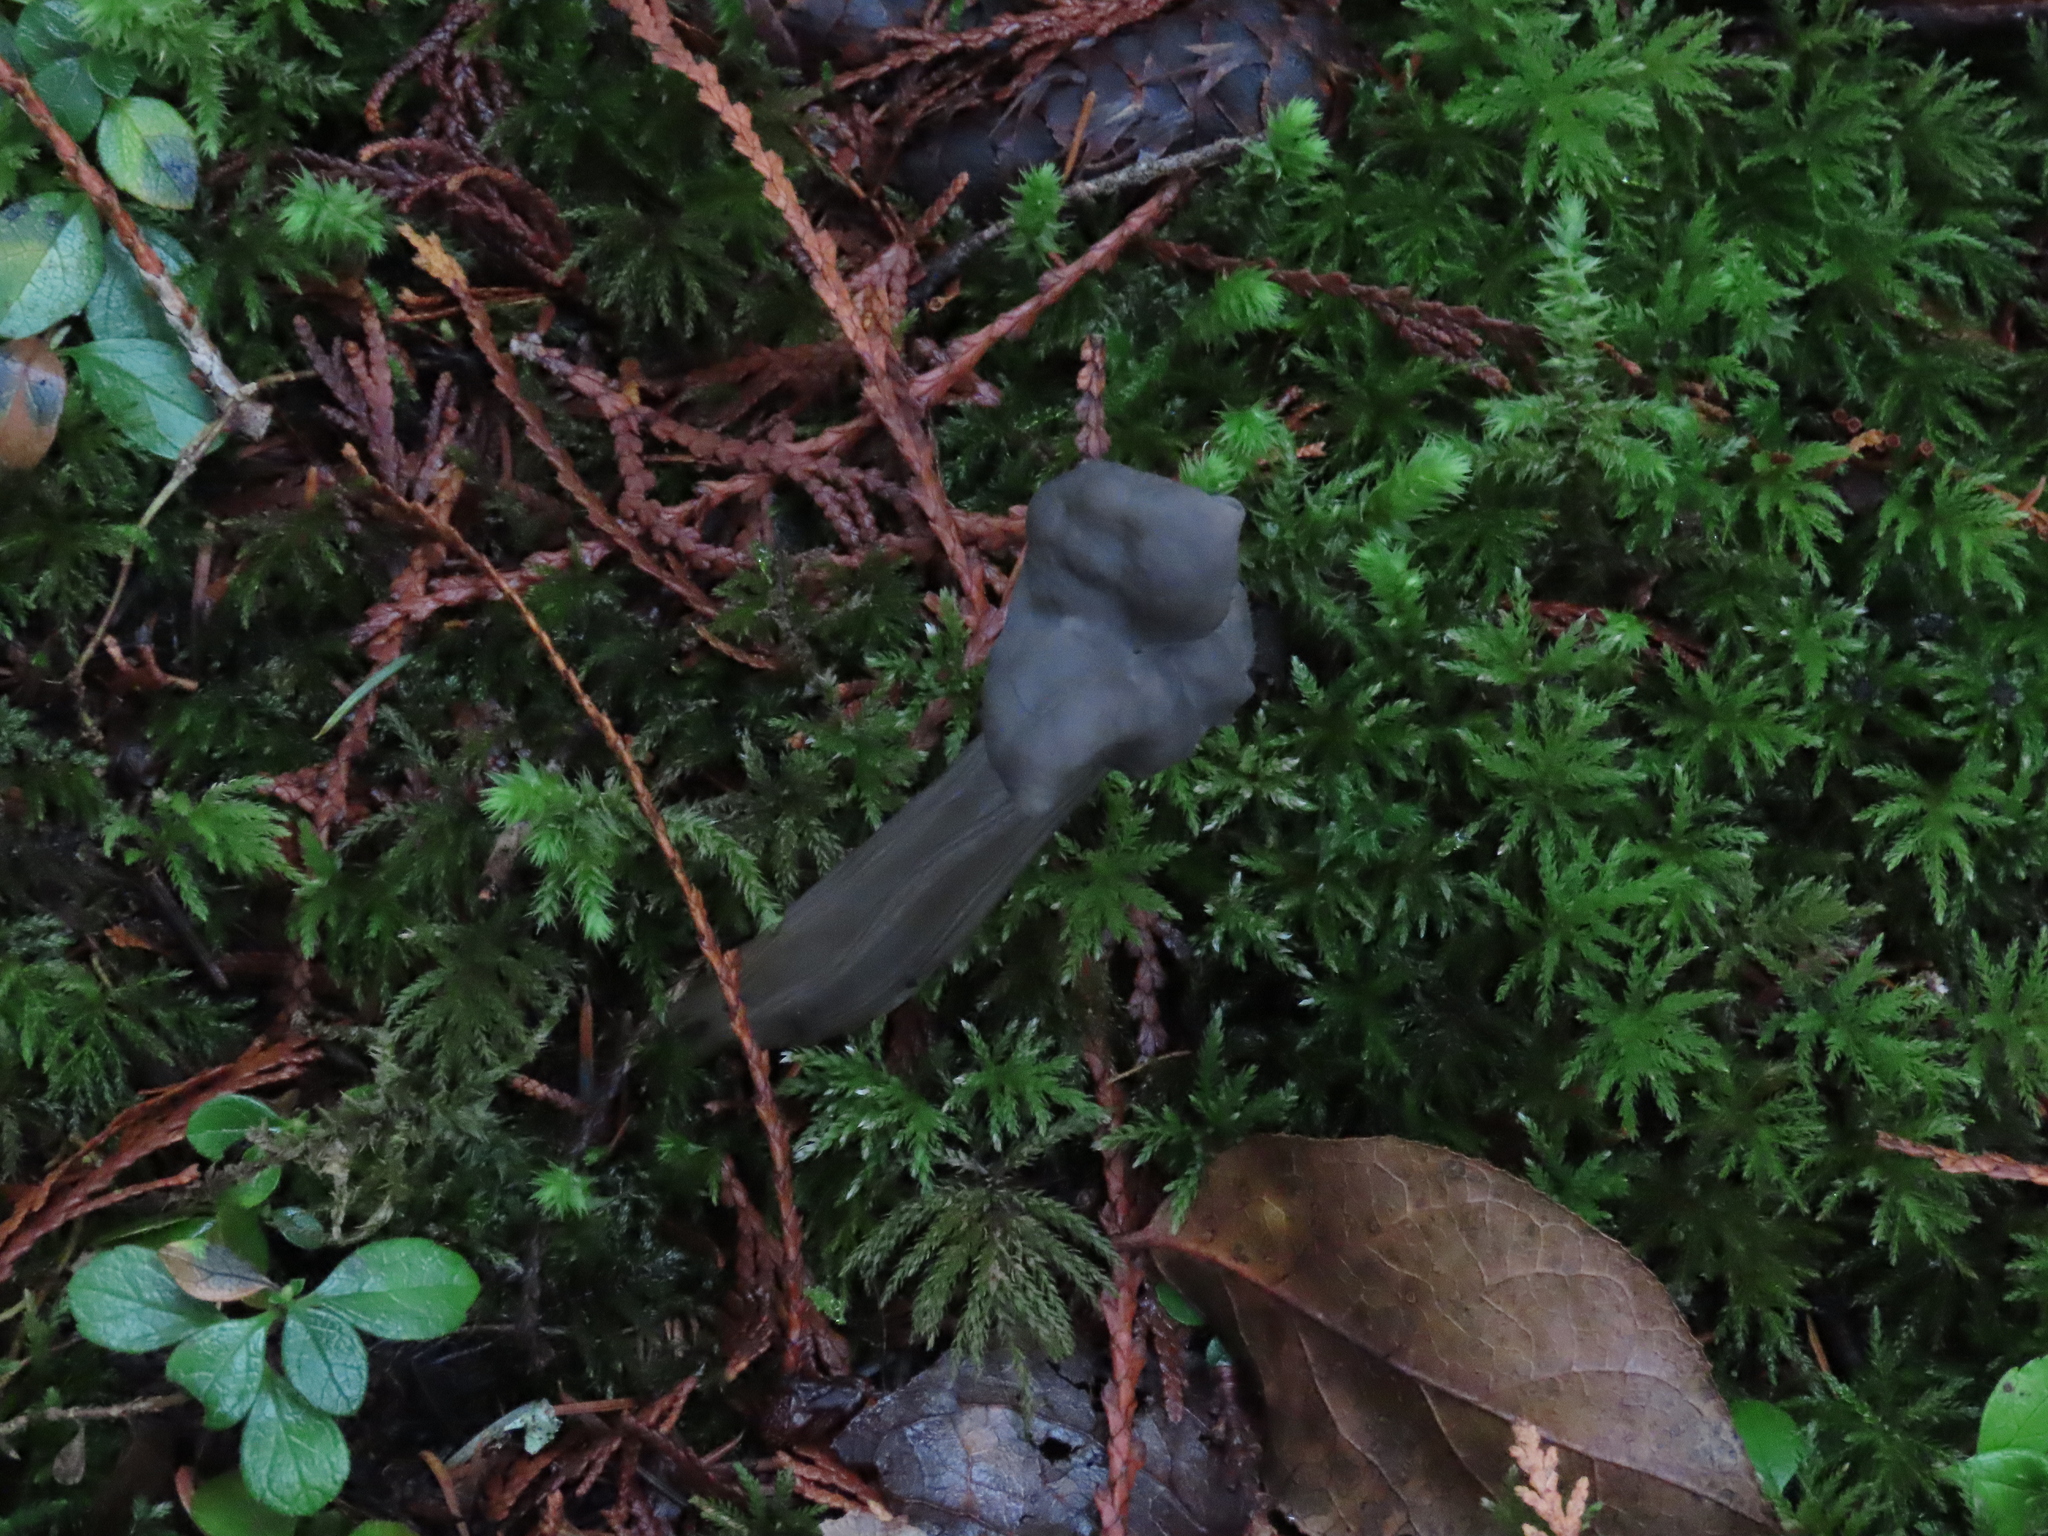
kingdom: Fungi
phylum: Ascomycota
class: Pezizomycetes
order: Pezizales
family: Helvellaceae
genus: Helvella
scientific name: Helvella vespertina
